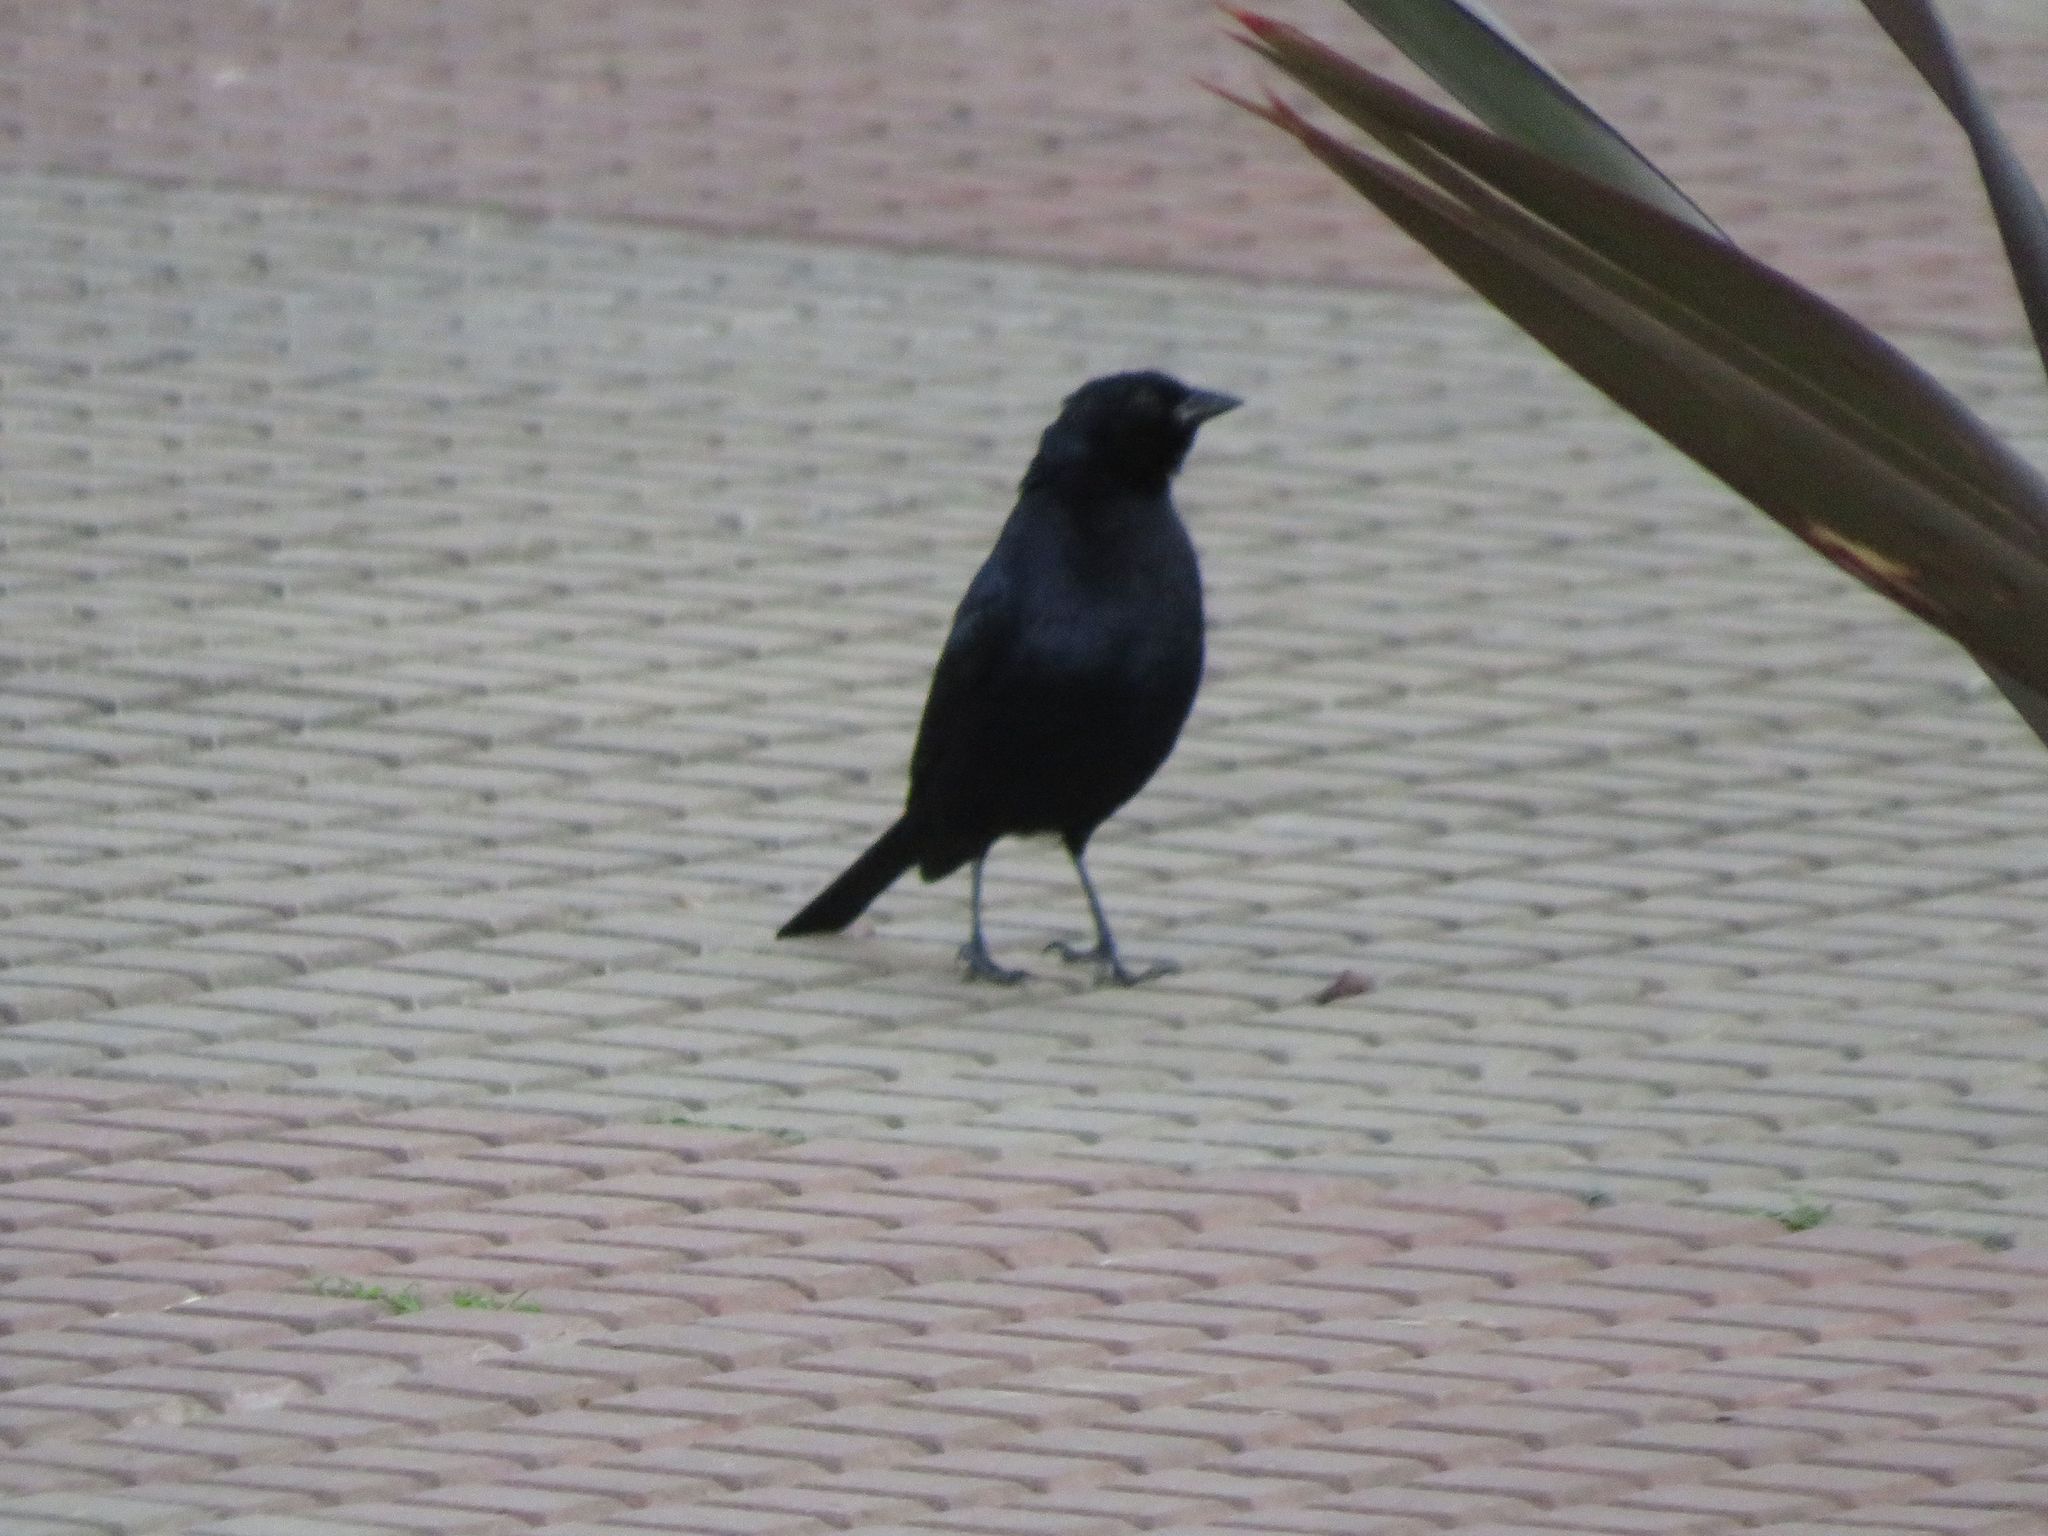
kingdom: Animalia
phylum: Chordata
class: Aves
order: Passeriformes
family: Icteridae
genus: Molothrus
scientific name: Molothrus bonariensis
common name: Shiny cowbird
